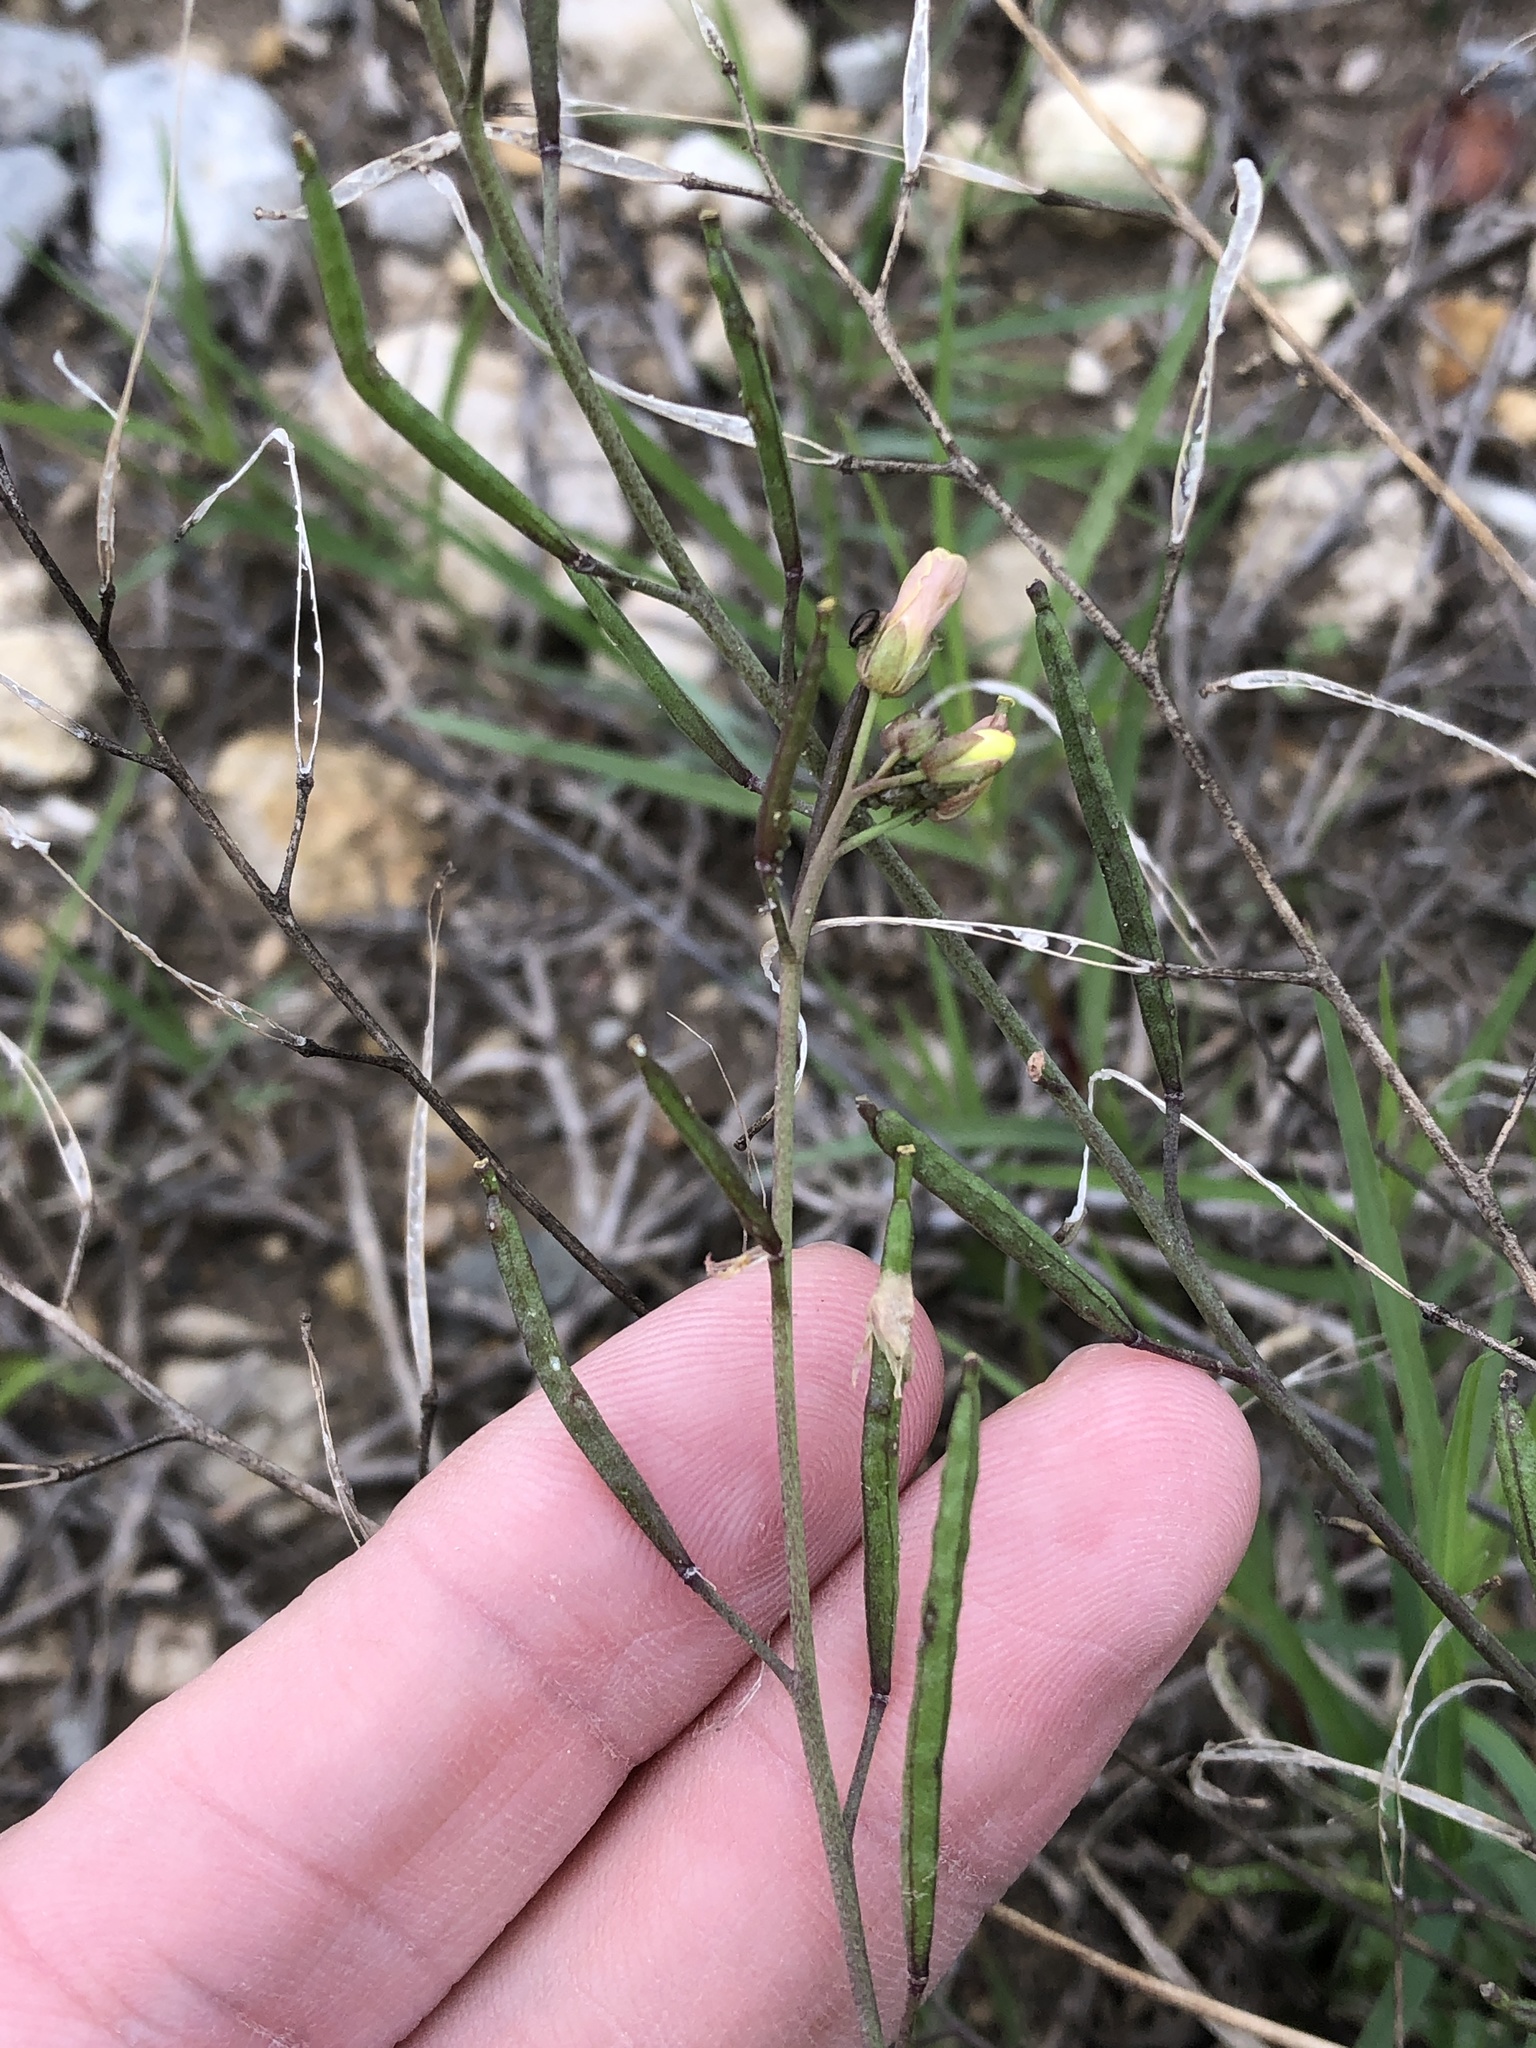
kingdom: Plantae
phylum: Tracheophyta
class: Magnoliopsida
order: Brassicales
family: Brassicaceae
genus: Diplotaxis
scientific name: Diplotaxis muralis
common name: Annual wall-rocket
